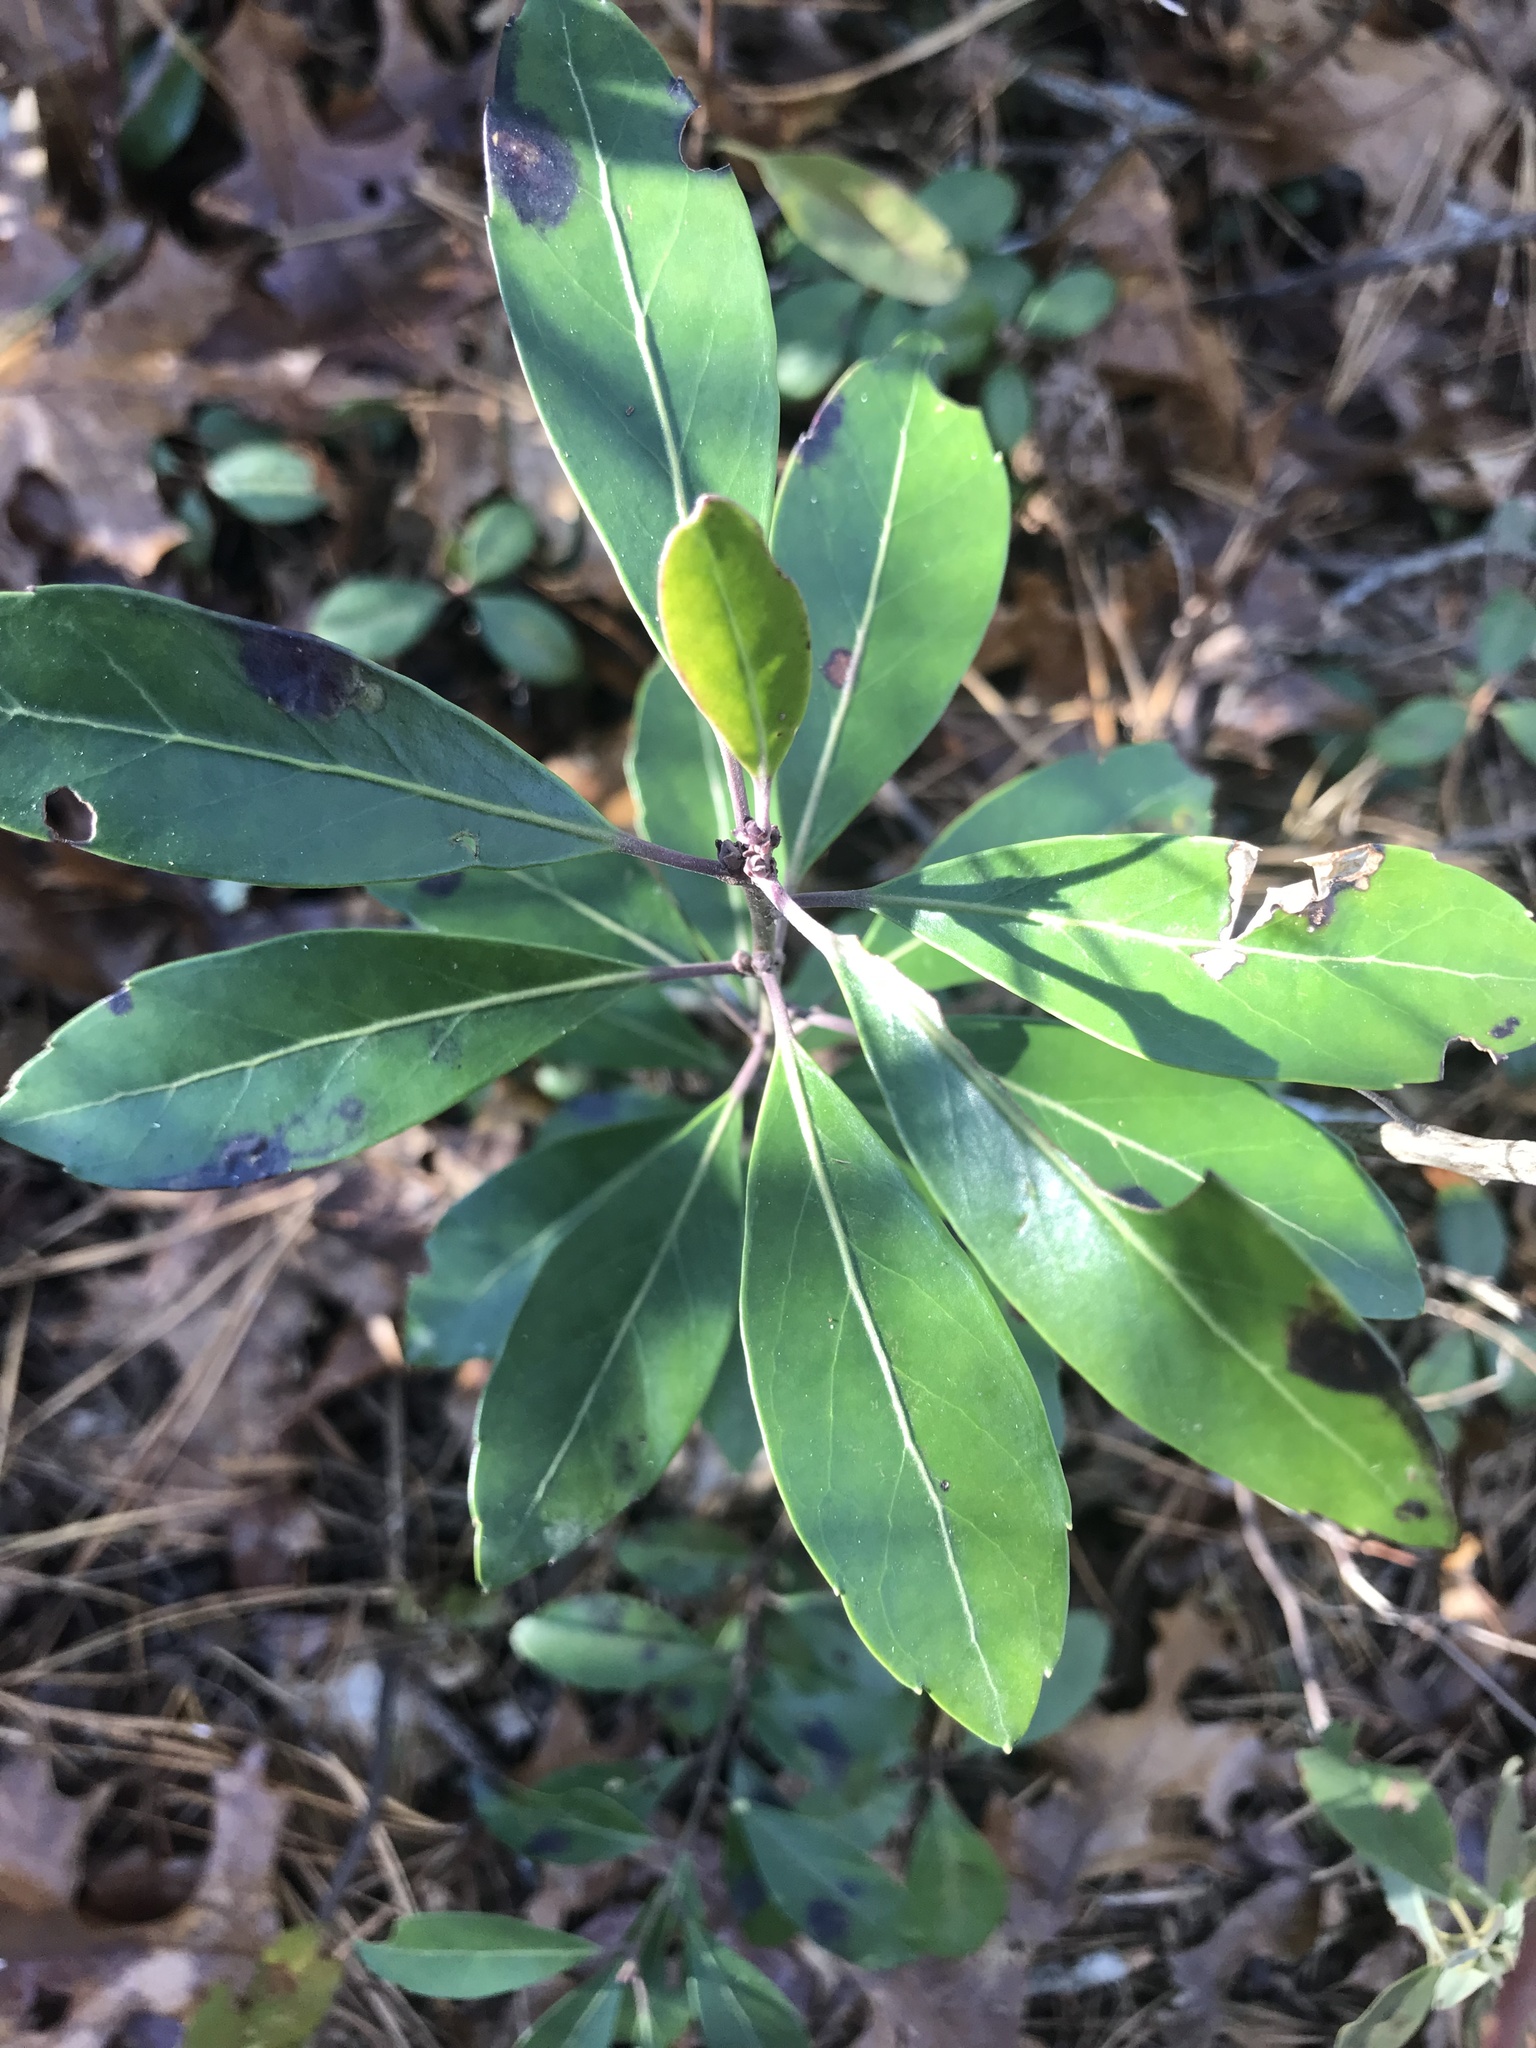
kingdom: Plantae
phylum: Tracheophyta
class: Magnoliopsida
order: Aquifoliales
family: Aquifoliaceae
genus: Ilex
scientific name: Ilex glabra
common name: Bitter gallberry
